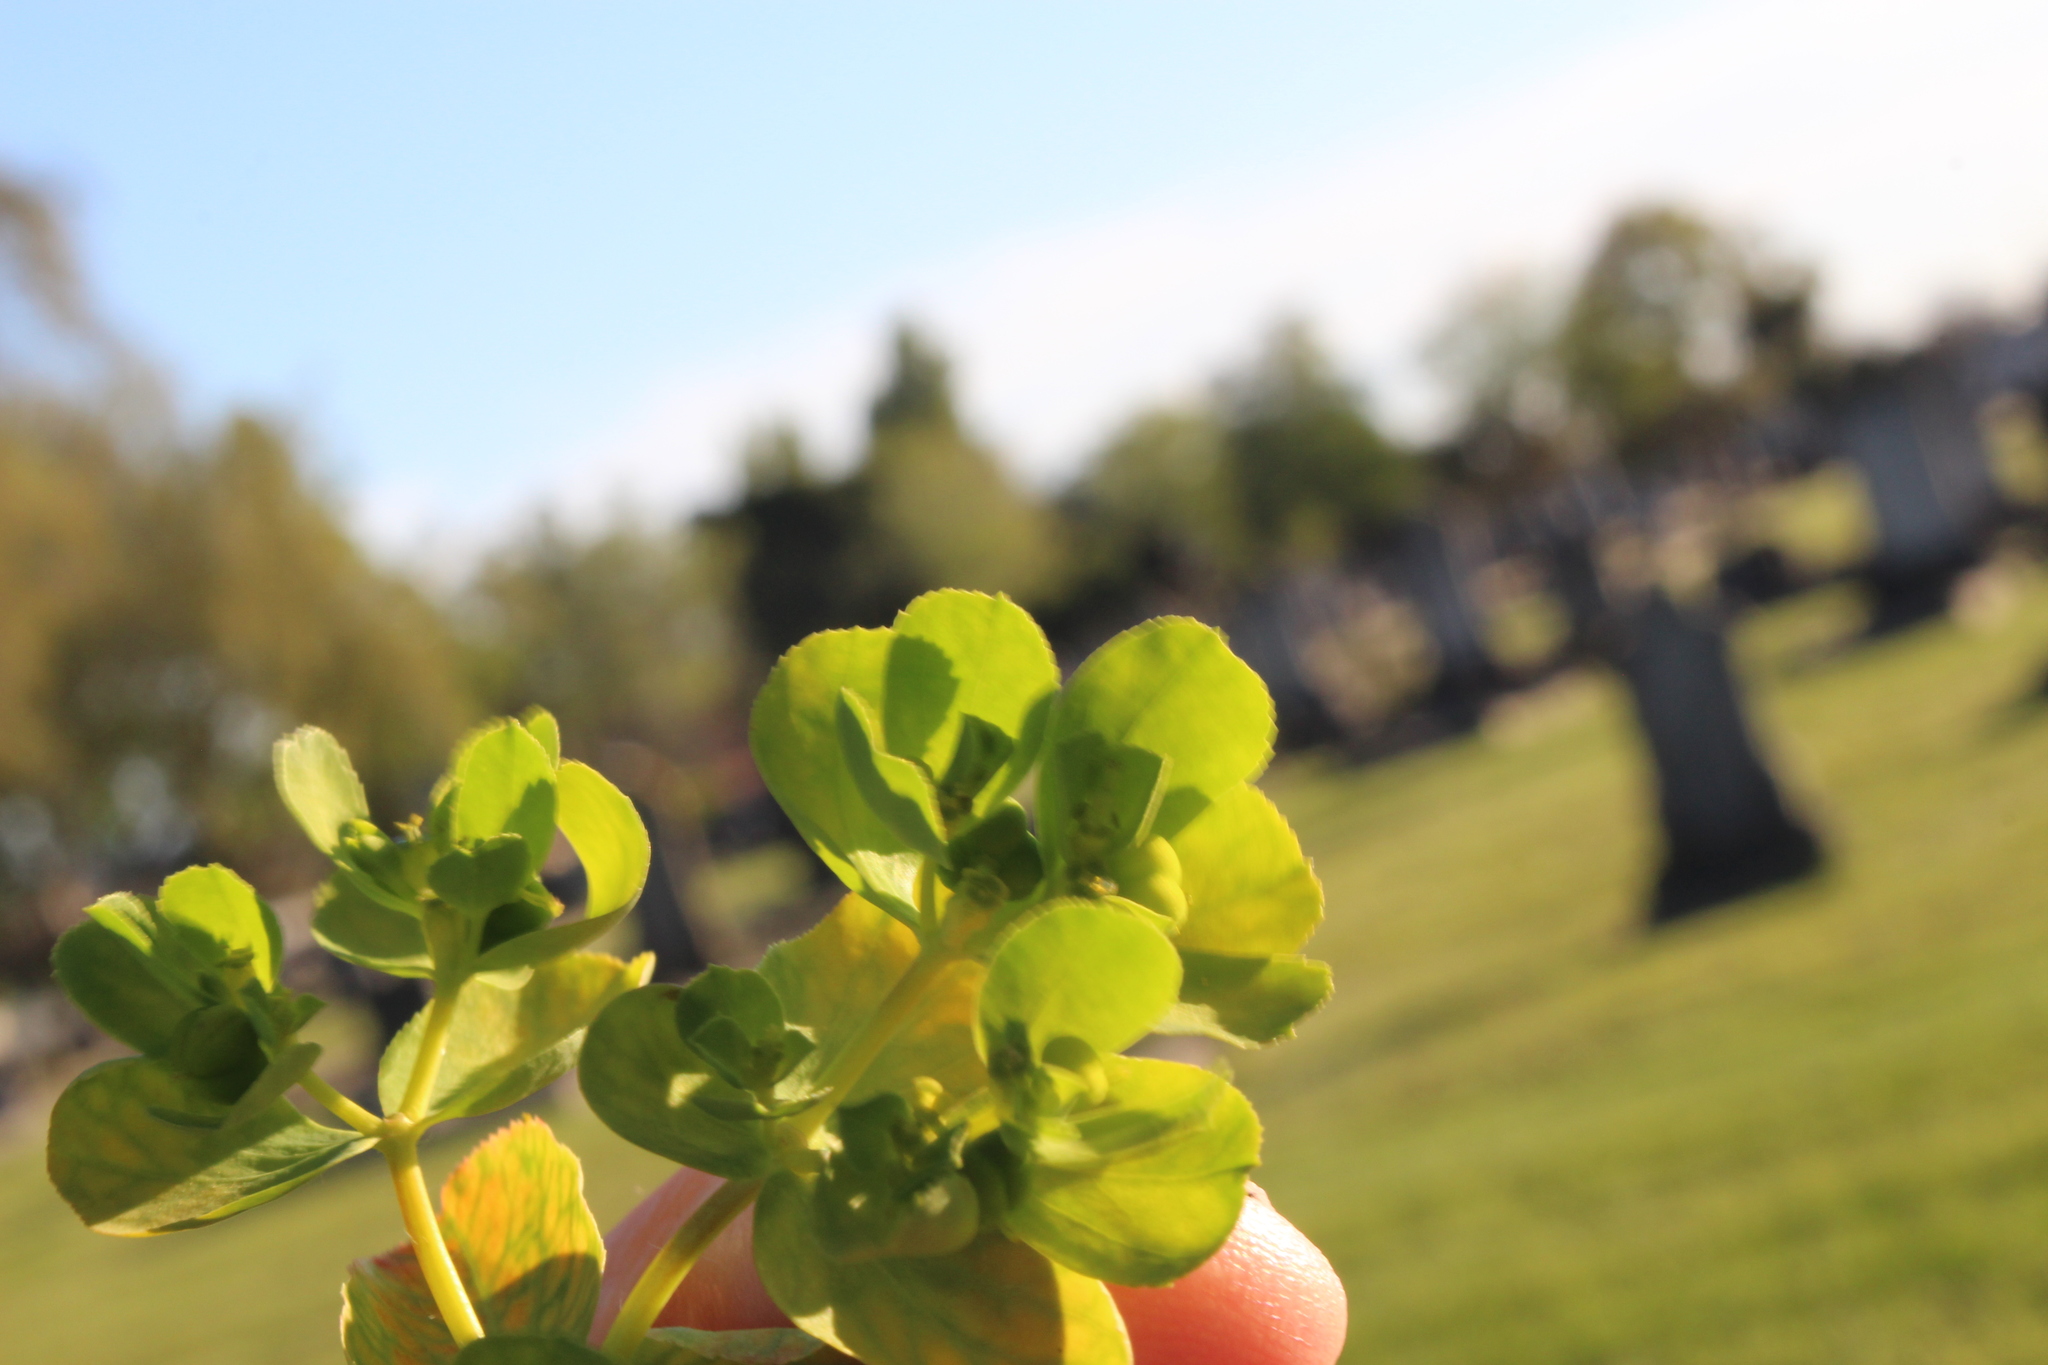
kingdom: Plantae
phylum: Tracheophyta
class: Magnoliopsida
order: Malpighiales
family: Euphorbiaceae
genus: Euphorbia
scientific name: Euphorbia helioscopia
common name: Sun spurge
